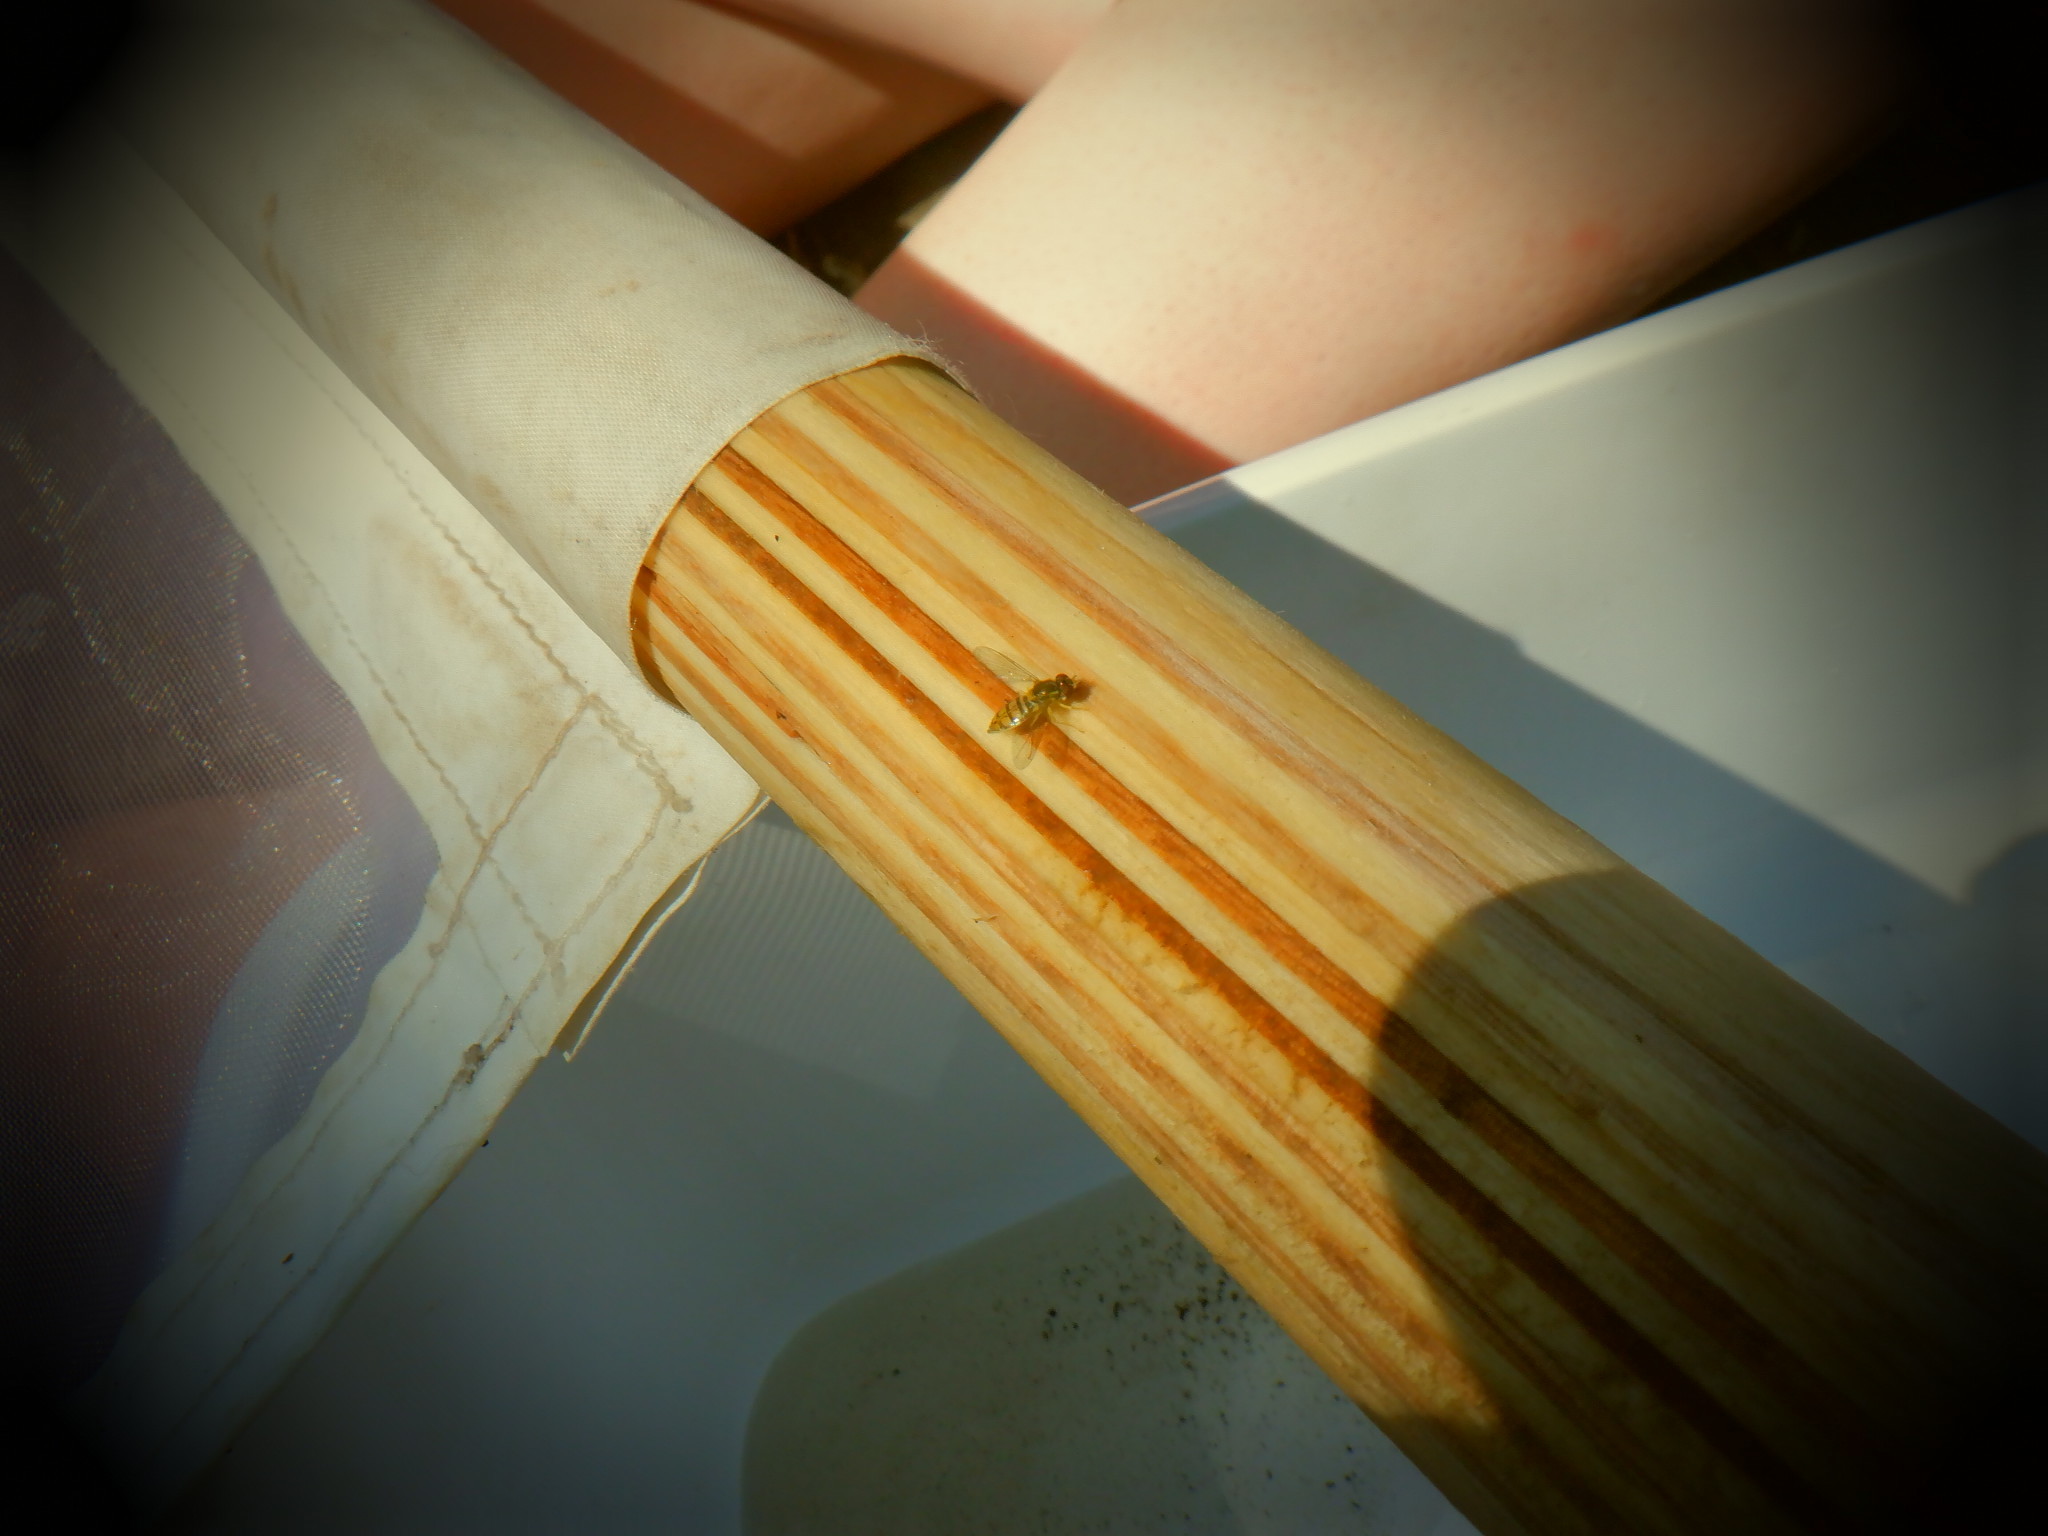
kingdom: Animalia
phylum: Arthropoda
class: Insecta
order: Diptera
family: Syrphidae
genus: Toxomerus
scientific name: Toxomerus marginatus
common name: Syrphid fly
